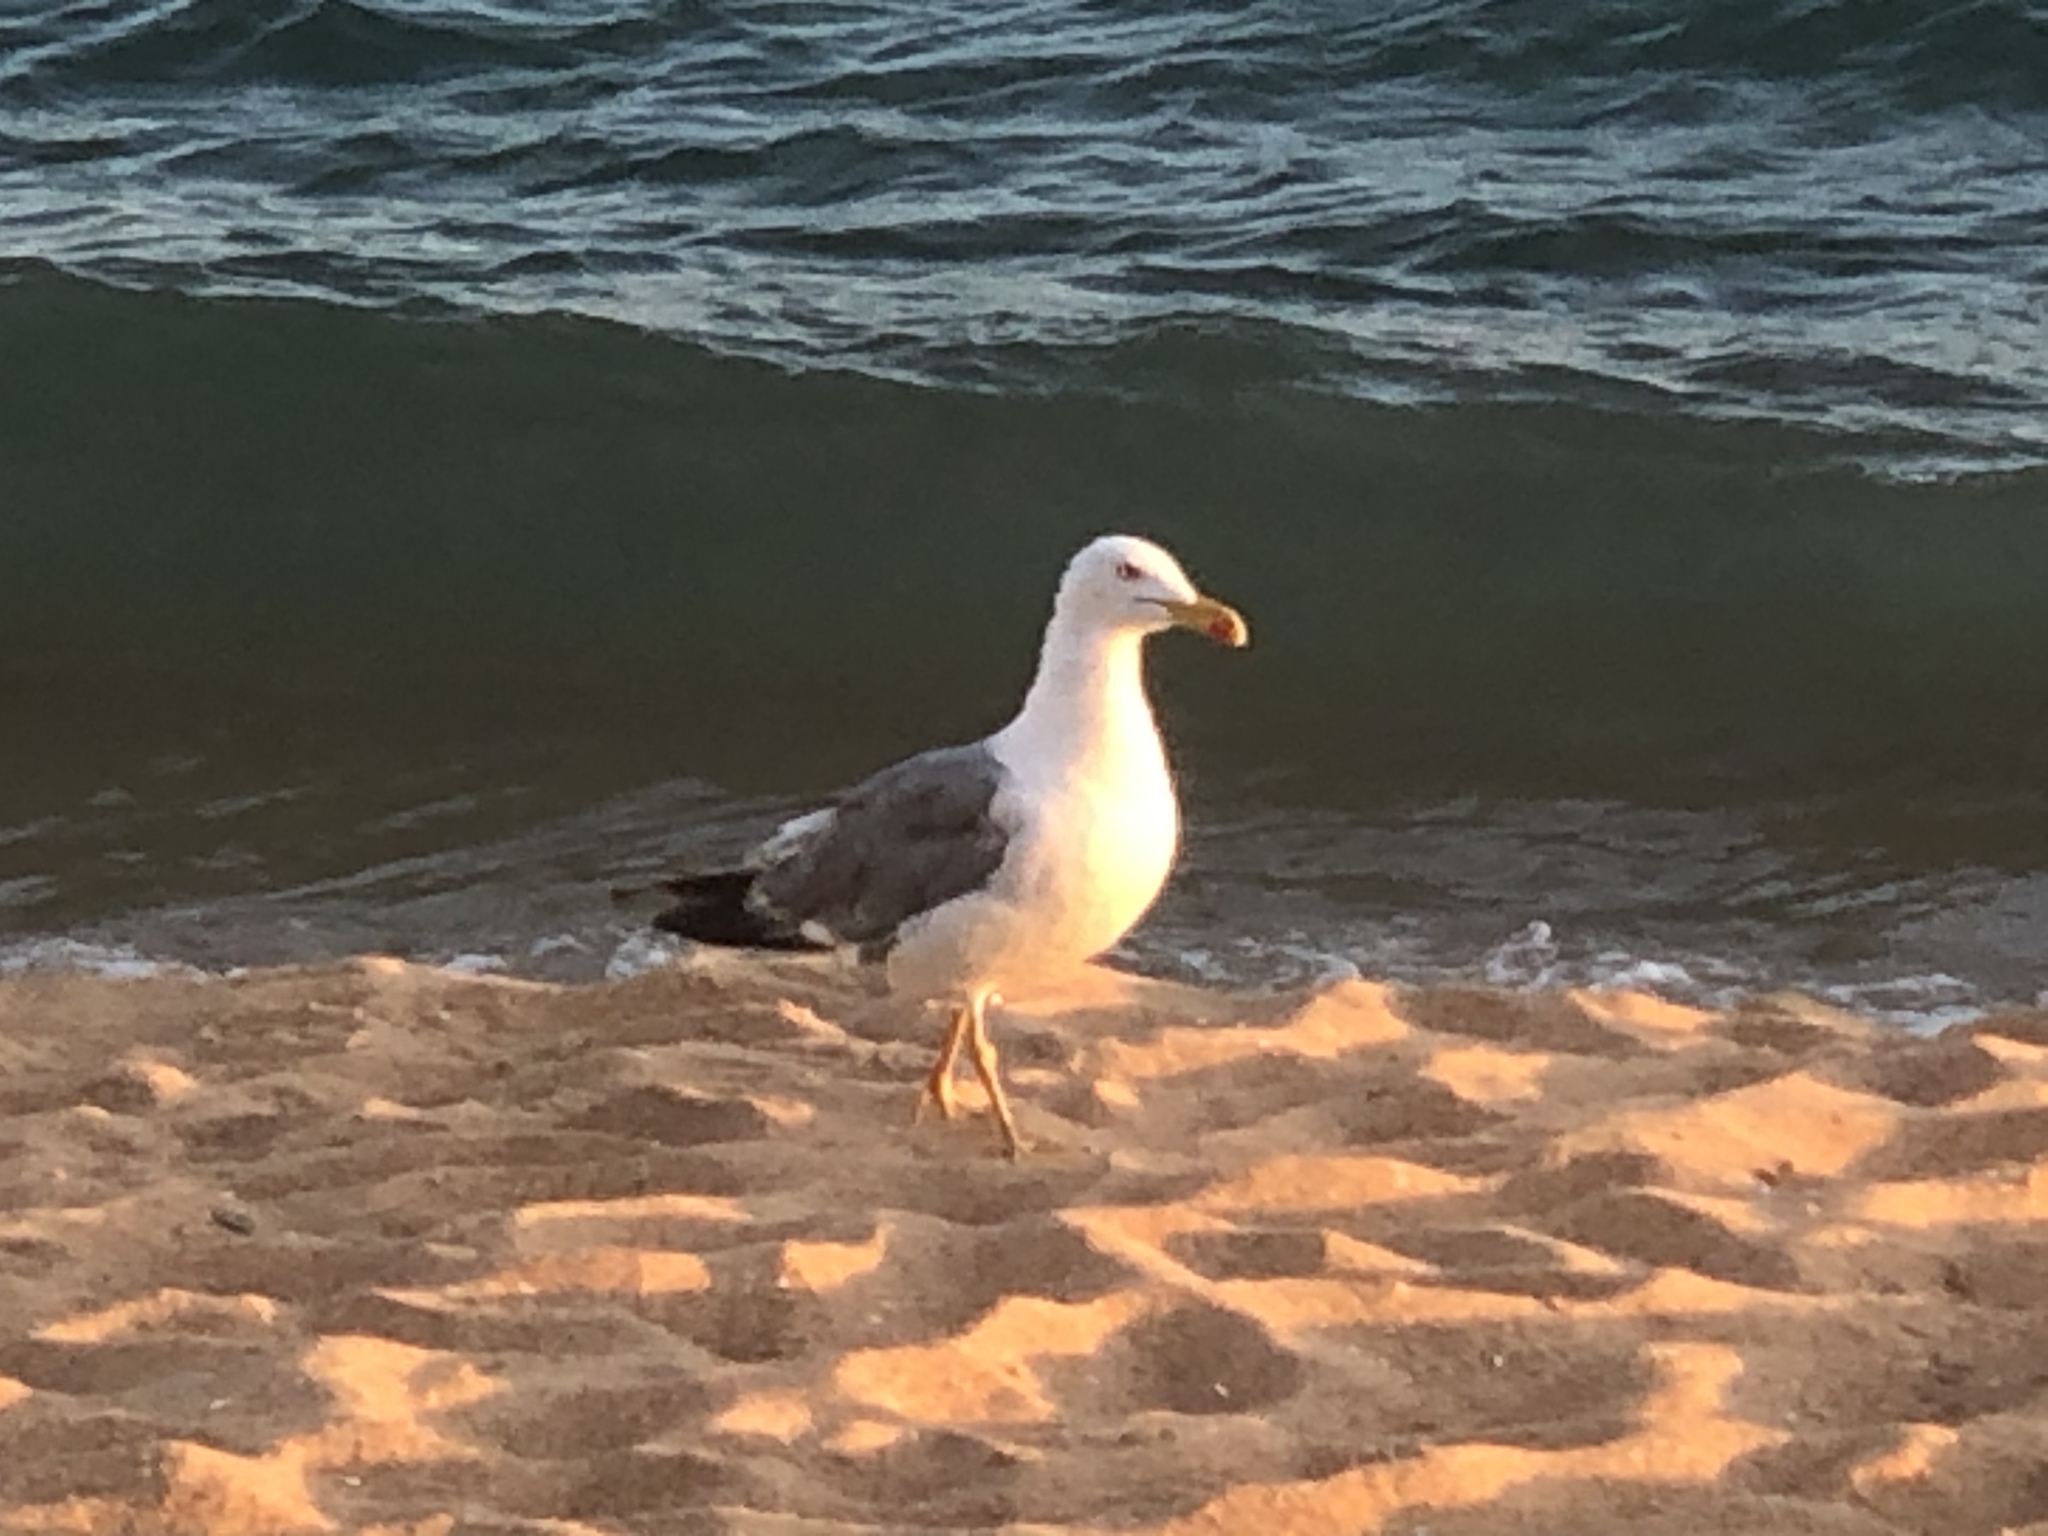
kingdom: Animalia
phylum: Chordata
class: Aves
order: Charadriiformes
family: Laridae
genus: Larus
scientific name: Larus michahellis
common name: Yellow-legged gull
